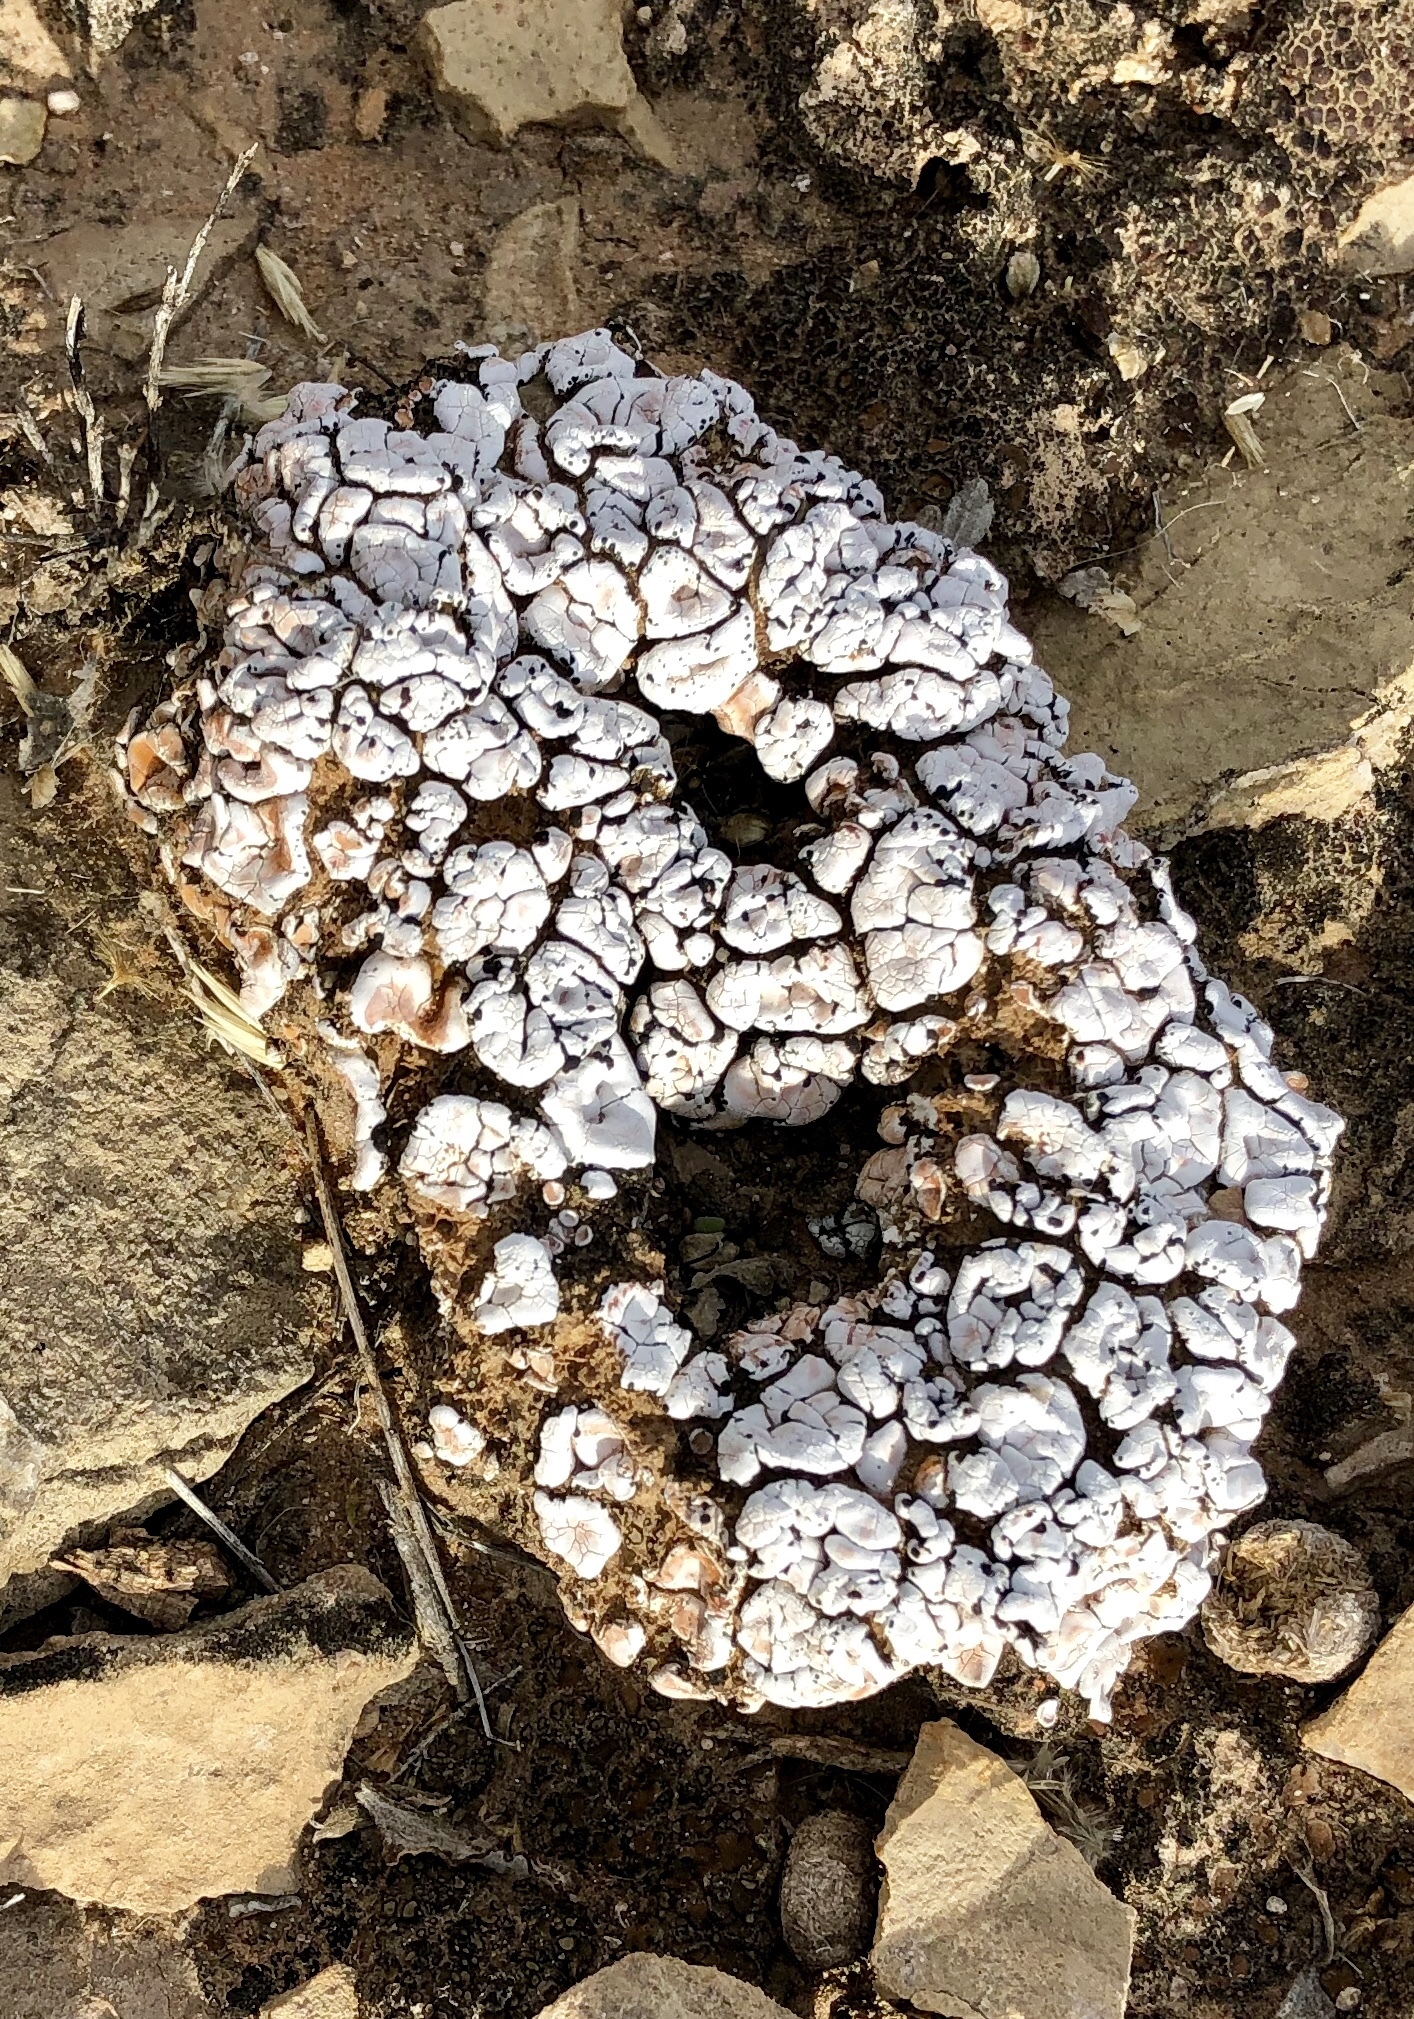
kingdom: Fungi
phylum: Ascomycota
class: Lecanoromycetes
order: Lecanorales
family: Psoraceae
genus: Psora
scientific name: Psora cerebriformis
